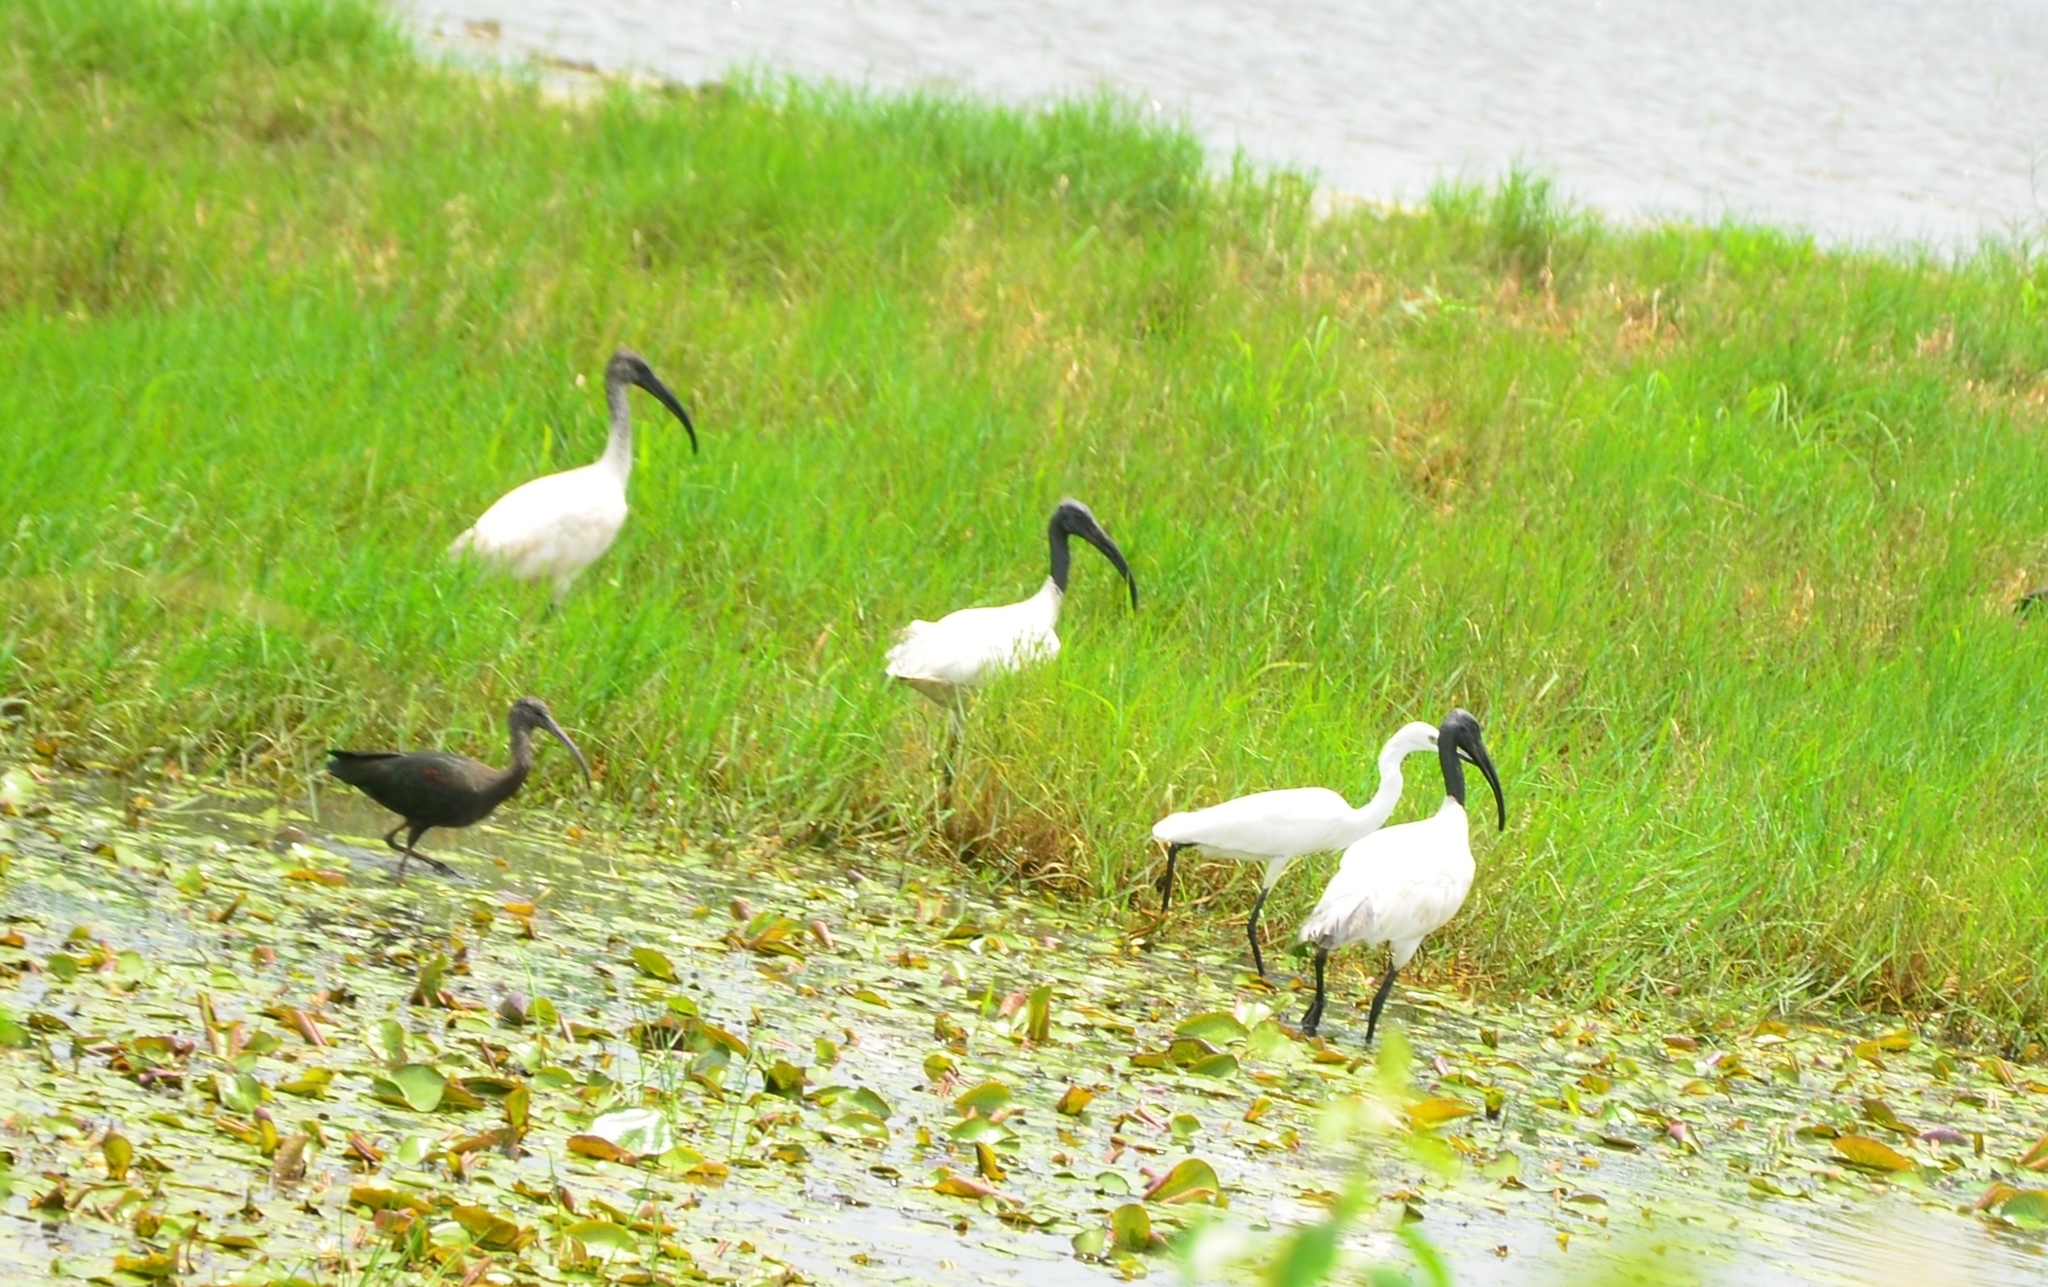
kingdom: Animalia
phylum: Chordata
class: Aves
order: Pelecaniformes
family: Threskiornithidae
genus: Threskiornis
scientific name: Threskiornis melanocephalus
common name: Black-headed ibis
